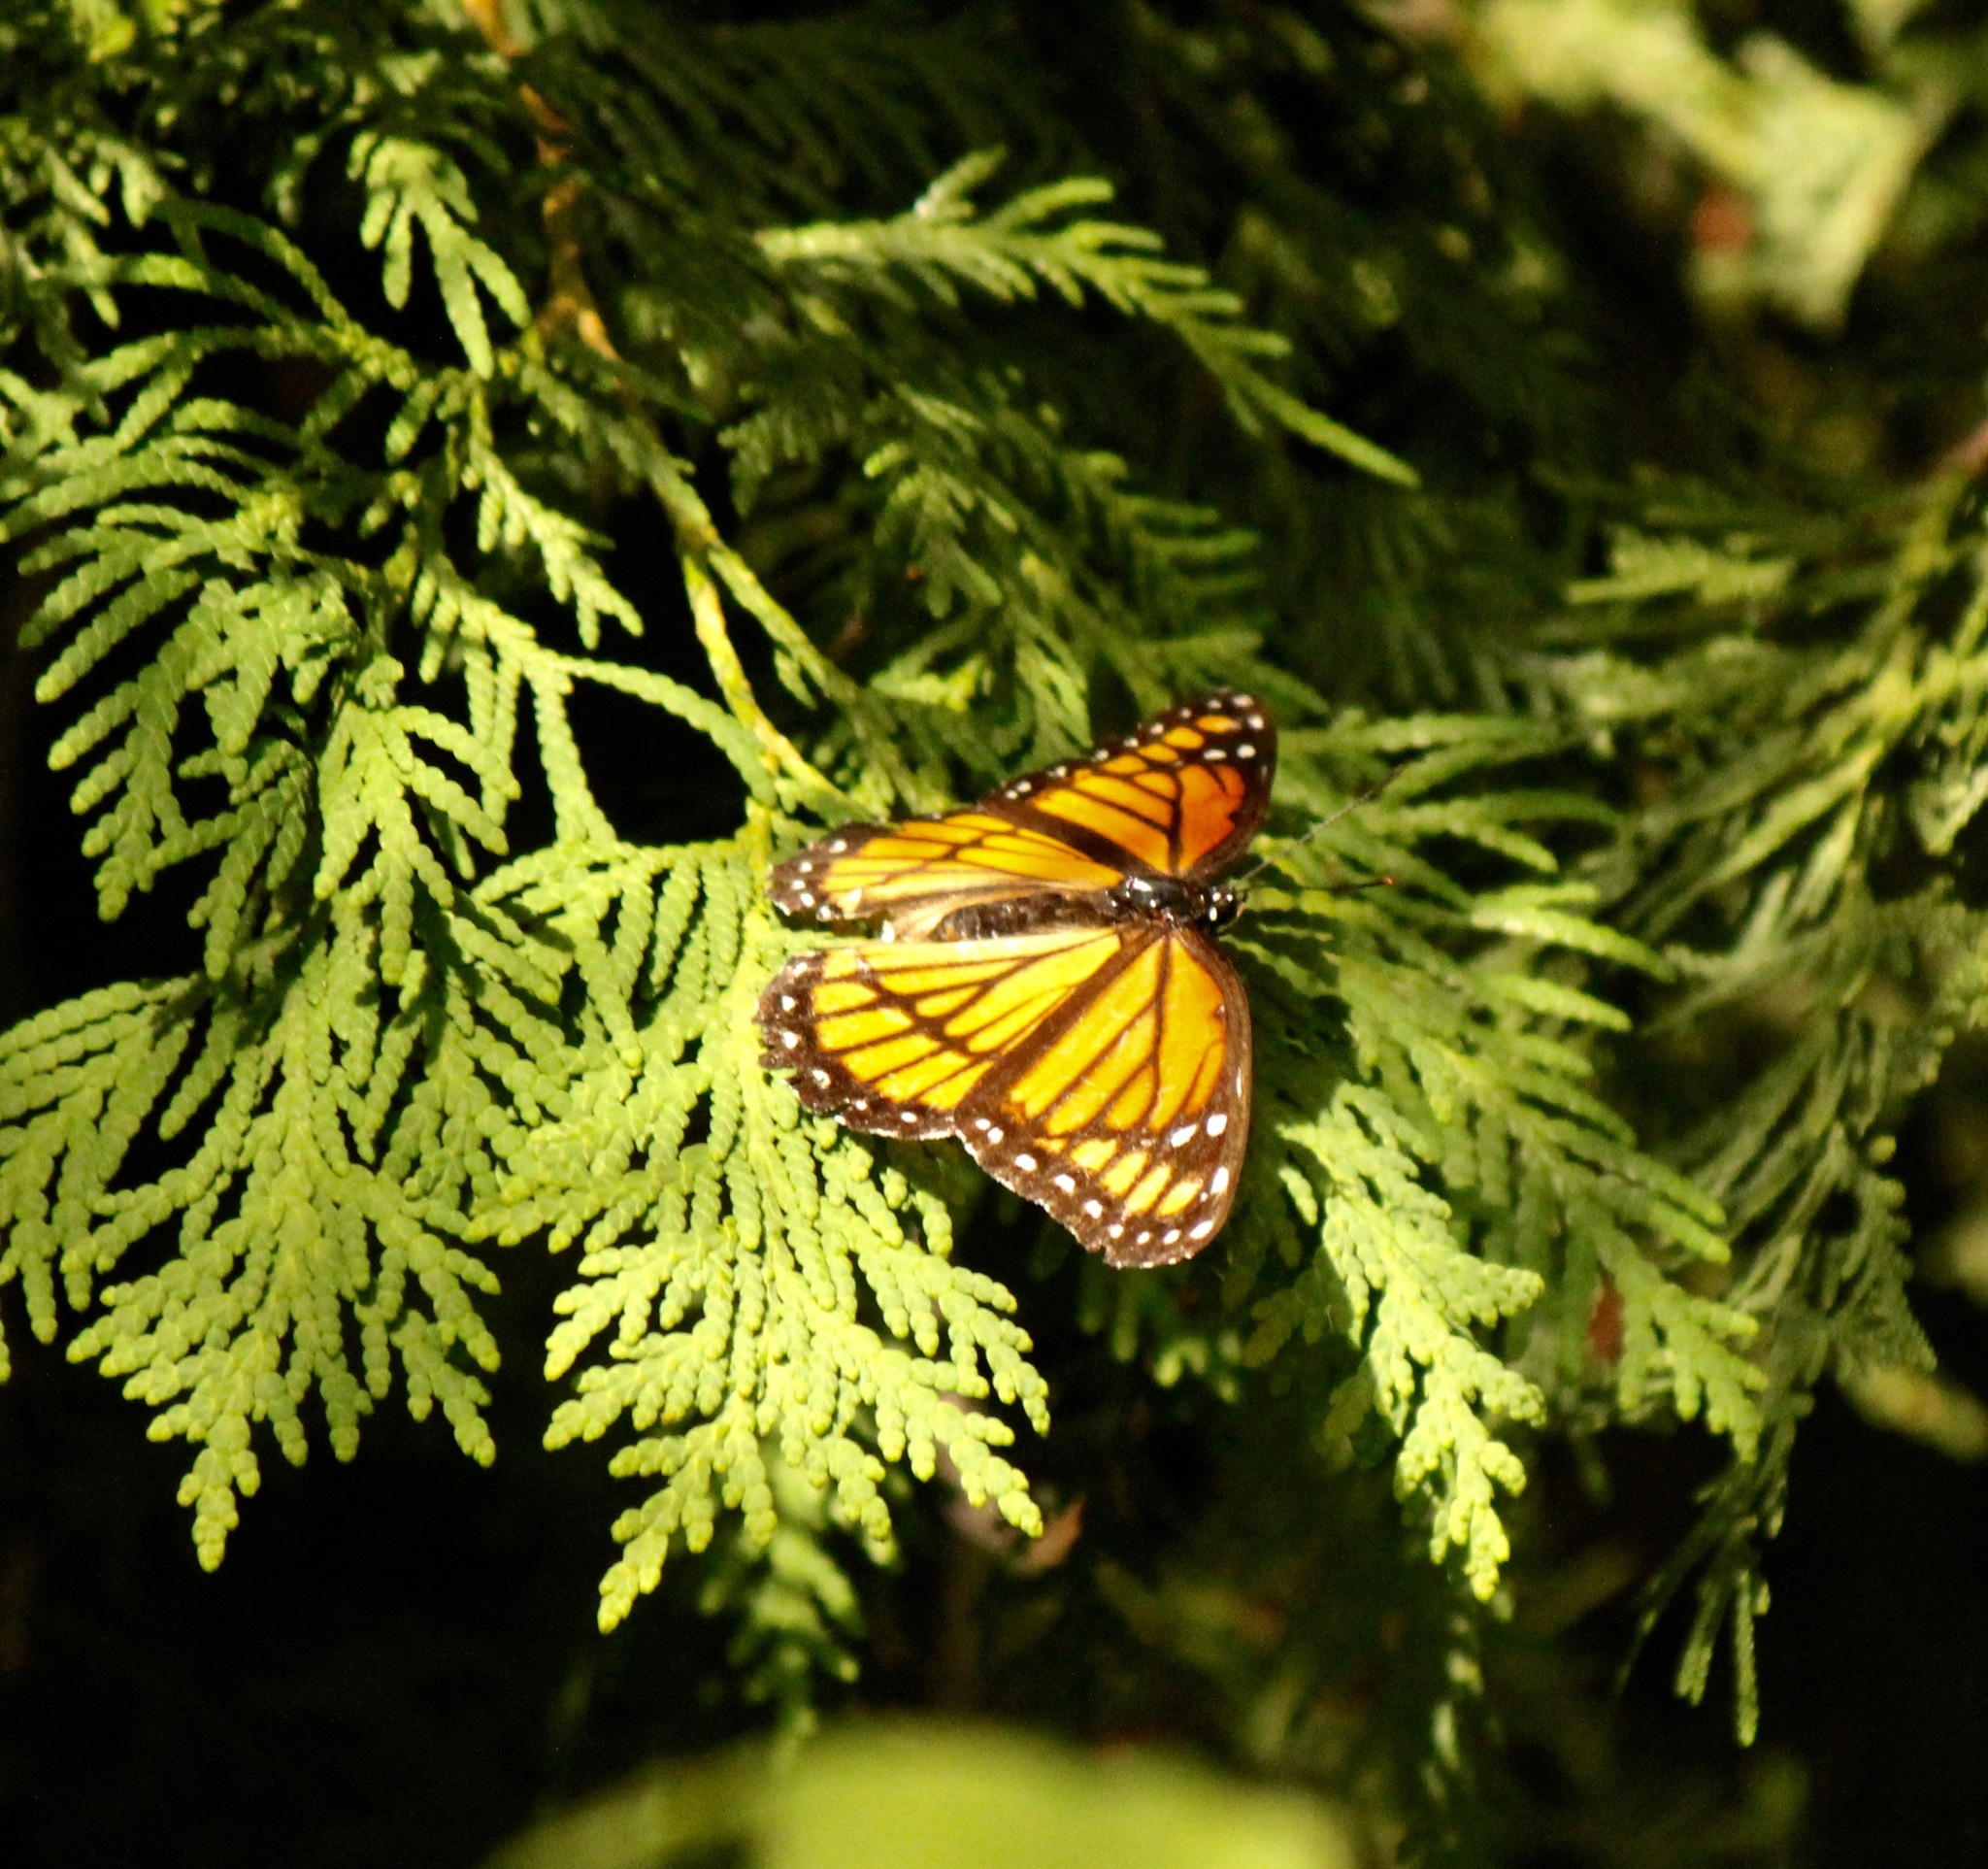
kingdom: Animalia
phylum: Arthropoda
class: Insecta
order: Lepidoptera
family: Nymphalidae
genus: Limenitis
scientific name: Limenitis archippus
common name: Viceroy
